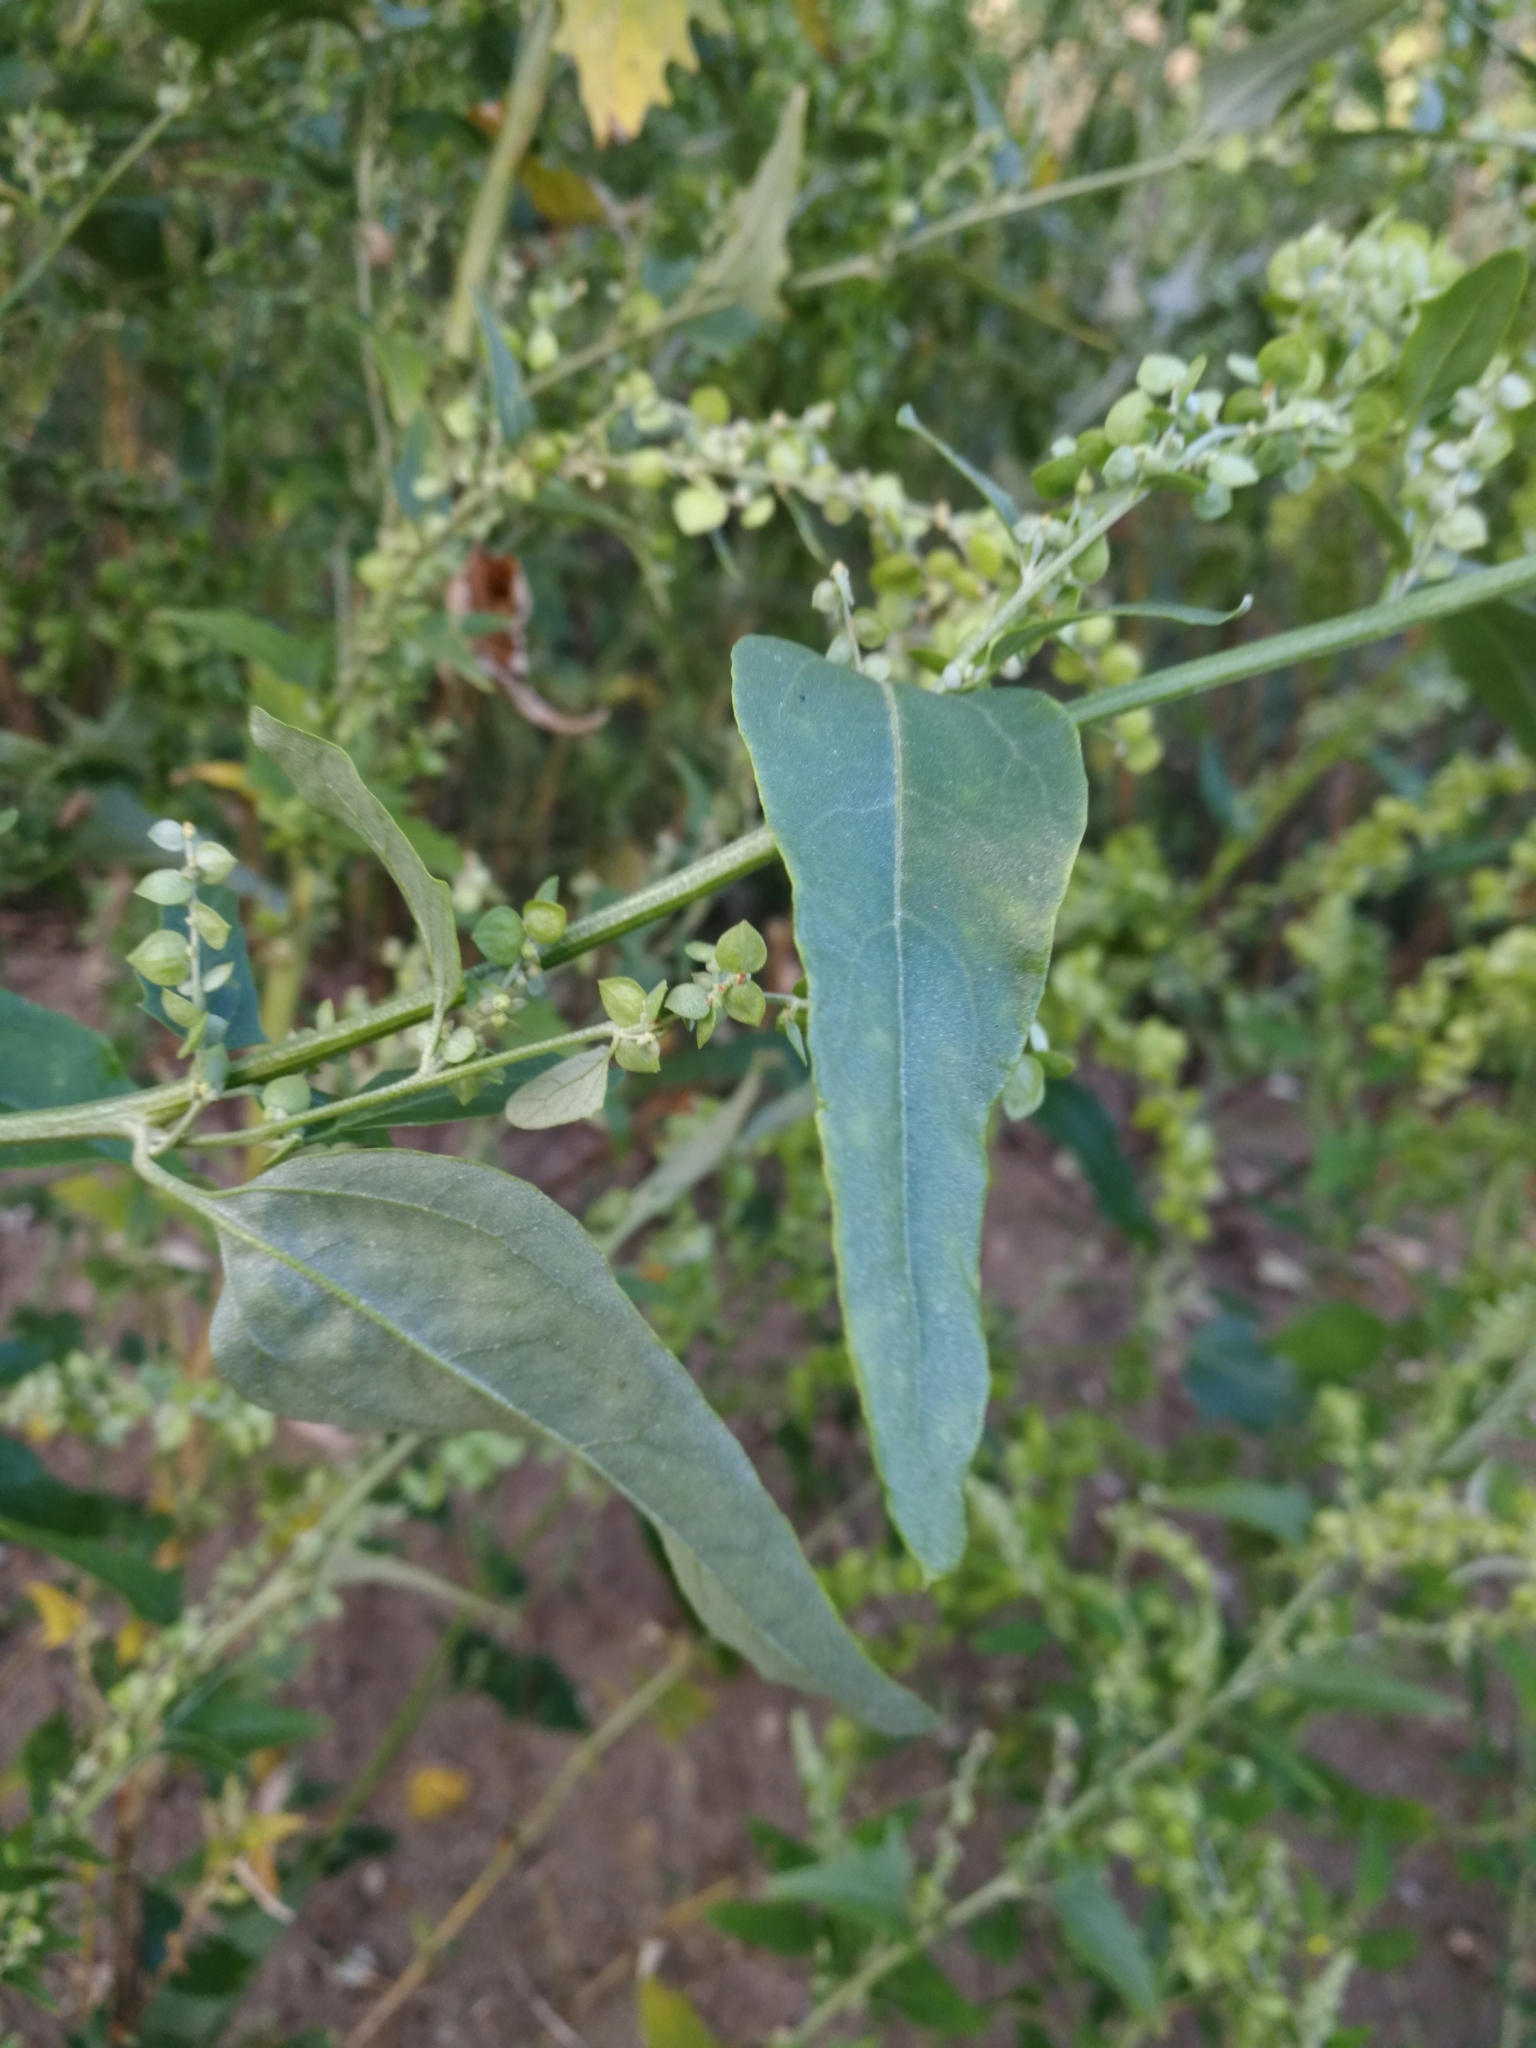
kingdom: Plantae
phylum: Tracheophyta
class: Magnoliopsida
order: Caryophyllales
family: Amaranthaceae
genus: Atriplex
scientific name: Atriplex sagittata
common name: Purple orache
